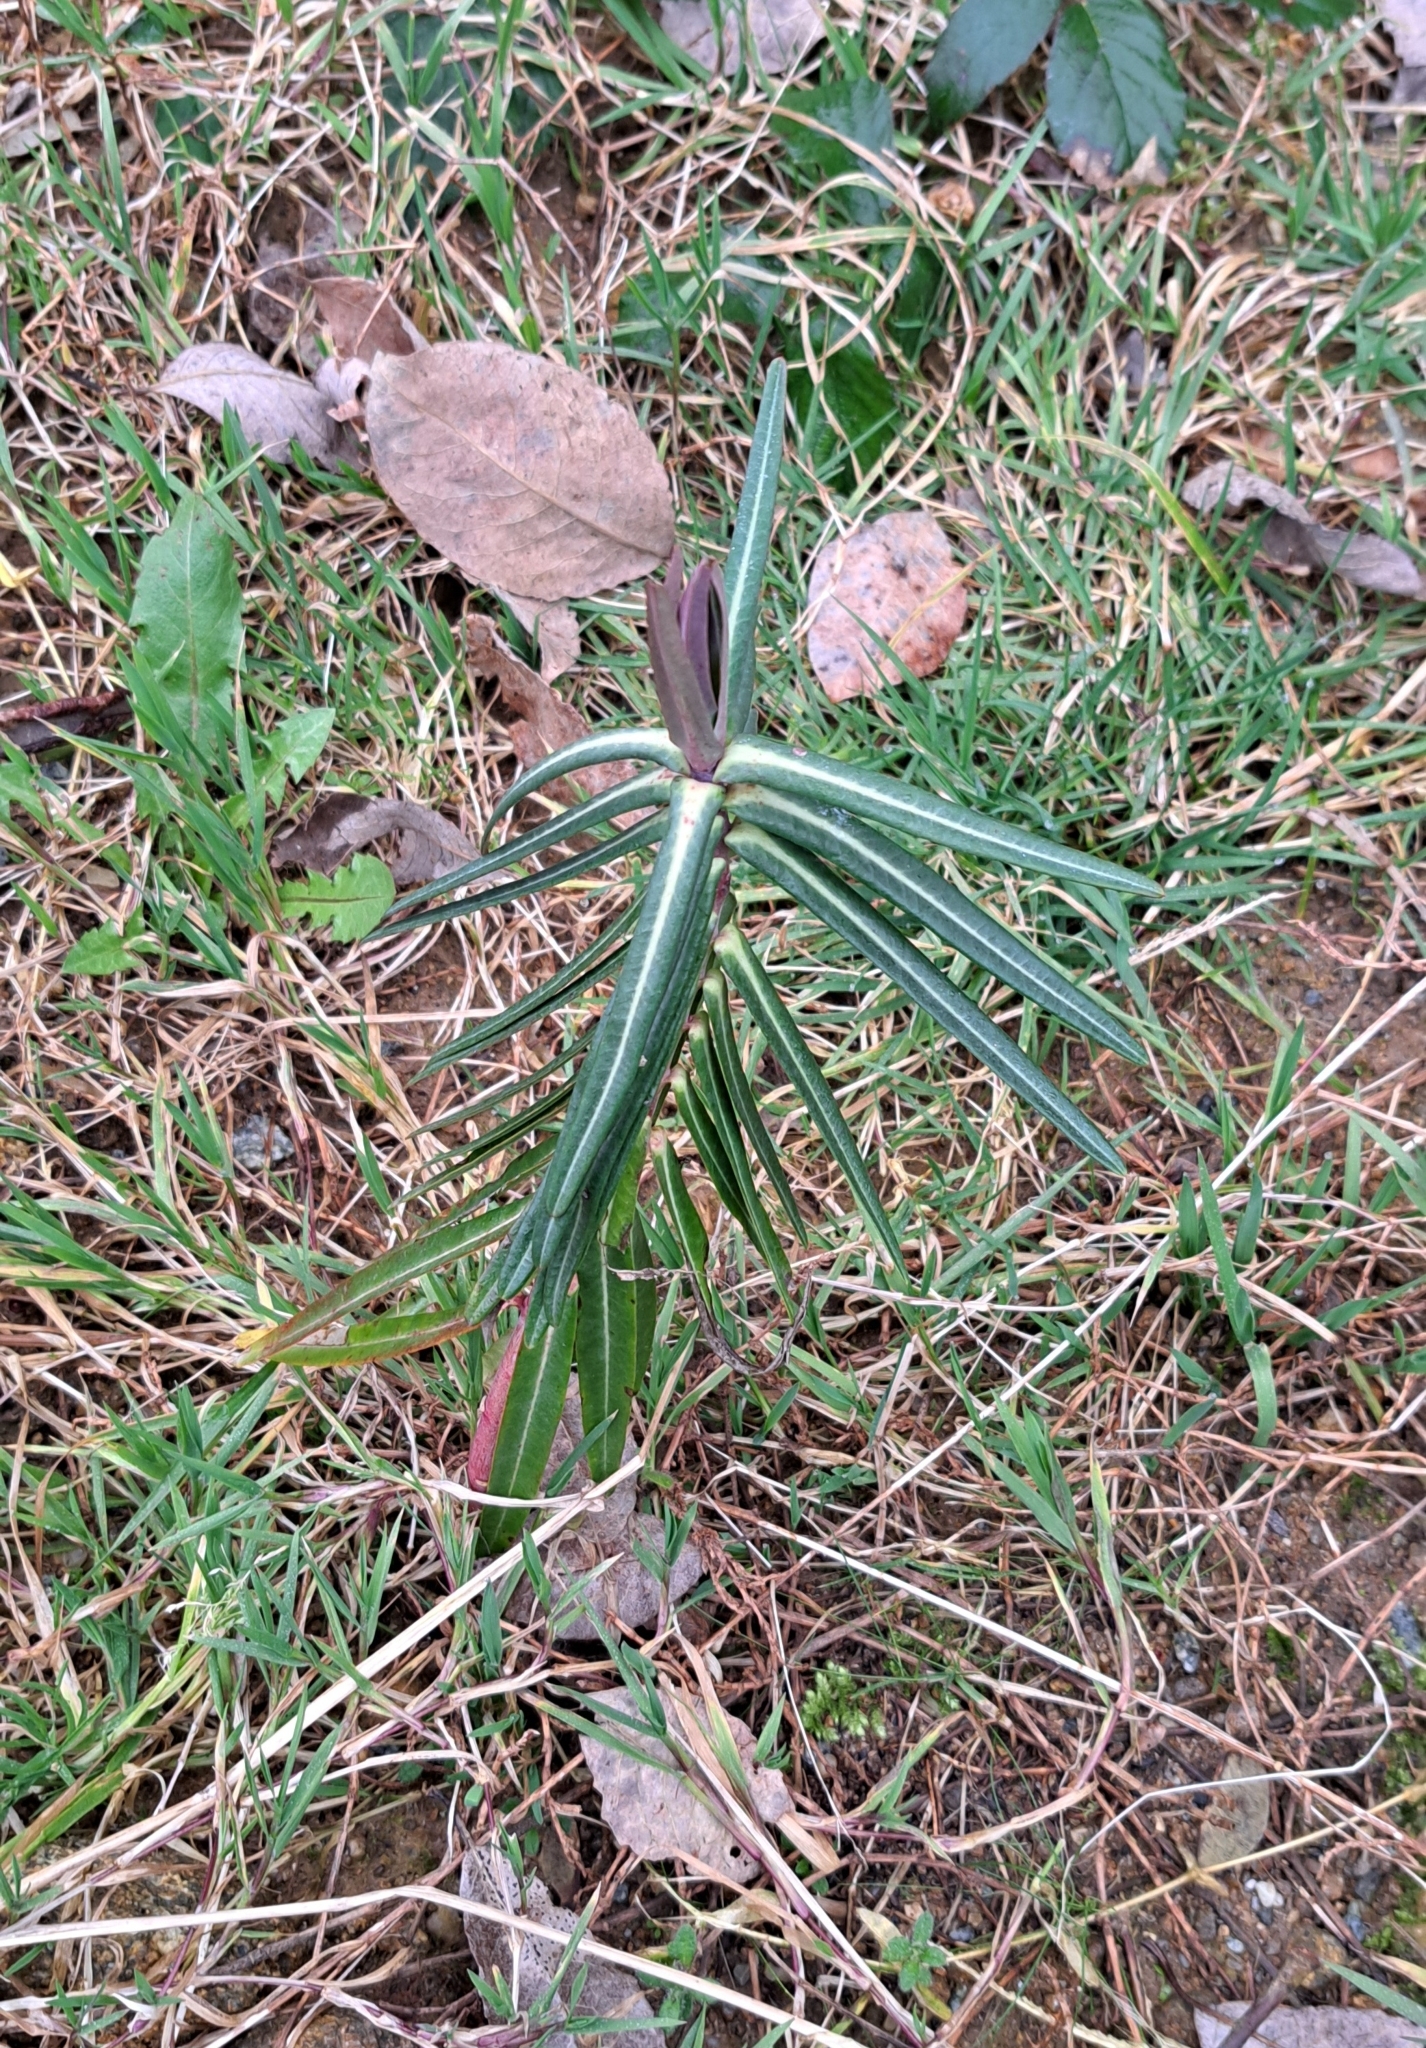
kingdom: Plantae
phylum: Tracheophyta
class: Magnoliopsida
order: Malpighiales
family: Euphorbiaceae
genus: Euphorbia
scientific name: Euphorbia lathyris
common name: Caper spurge
